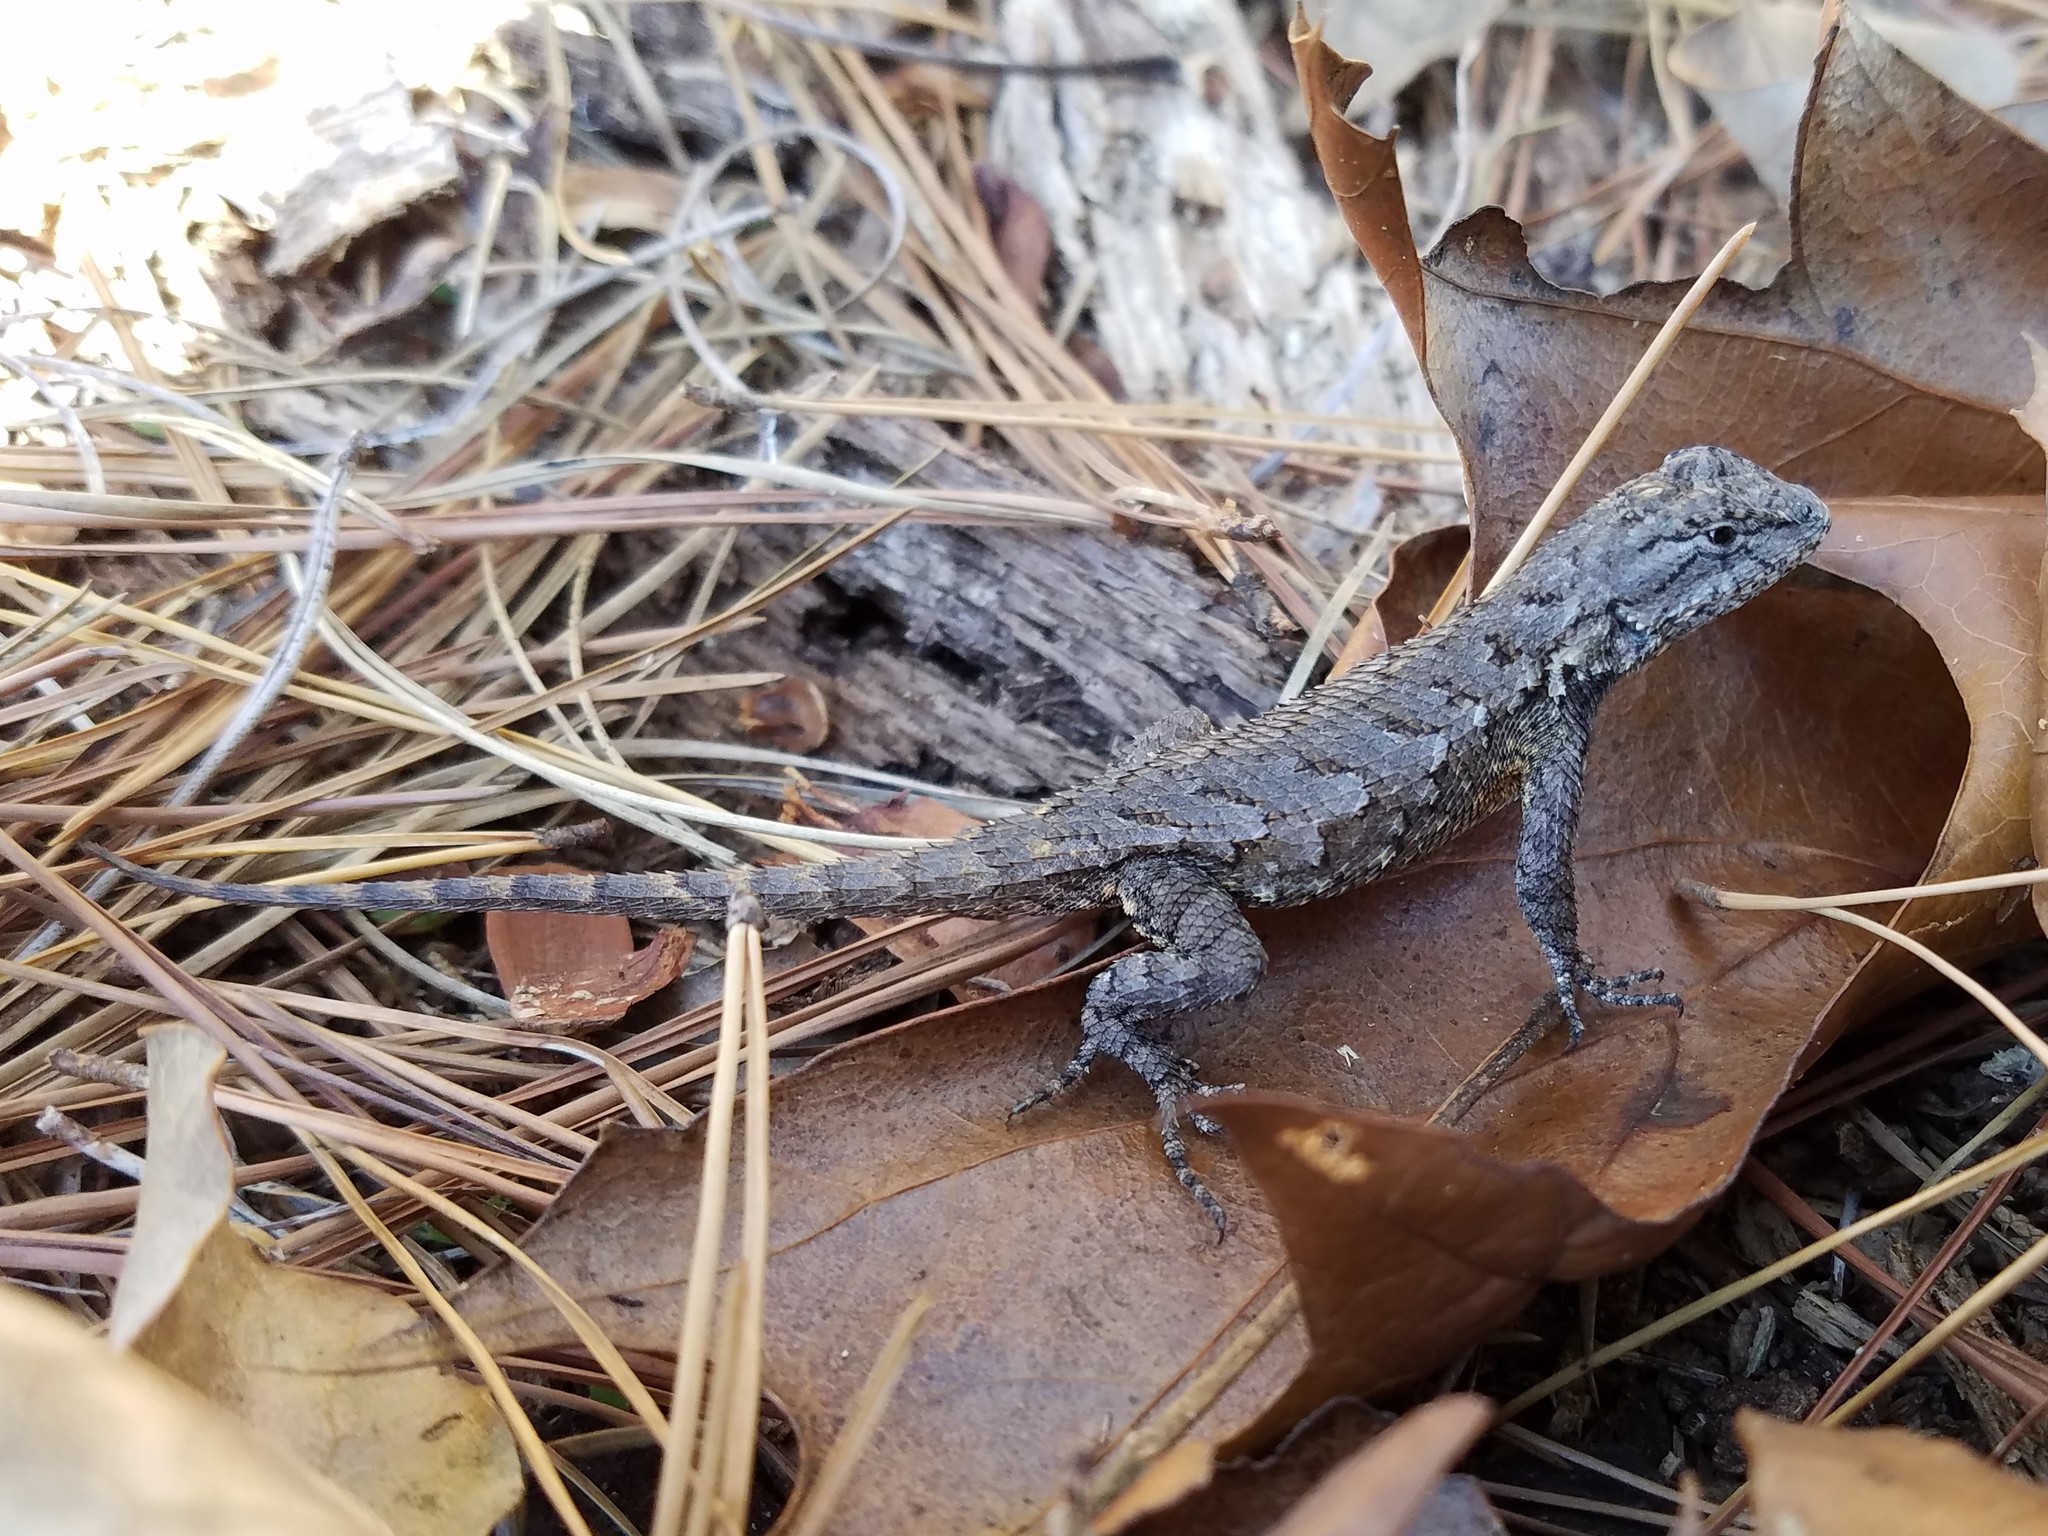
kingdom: Animalia
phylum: Chordata
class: Squamata
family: Phrynosomatidae
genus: Sceloporus
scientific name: Sceloporus undulatus
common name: Eastern fence lizard
